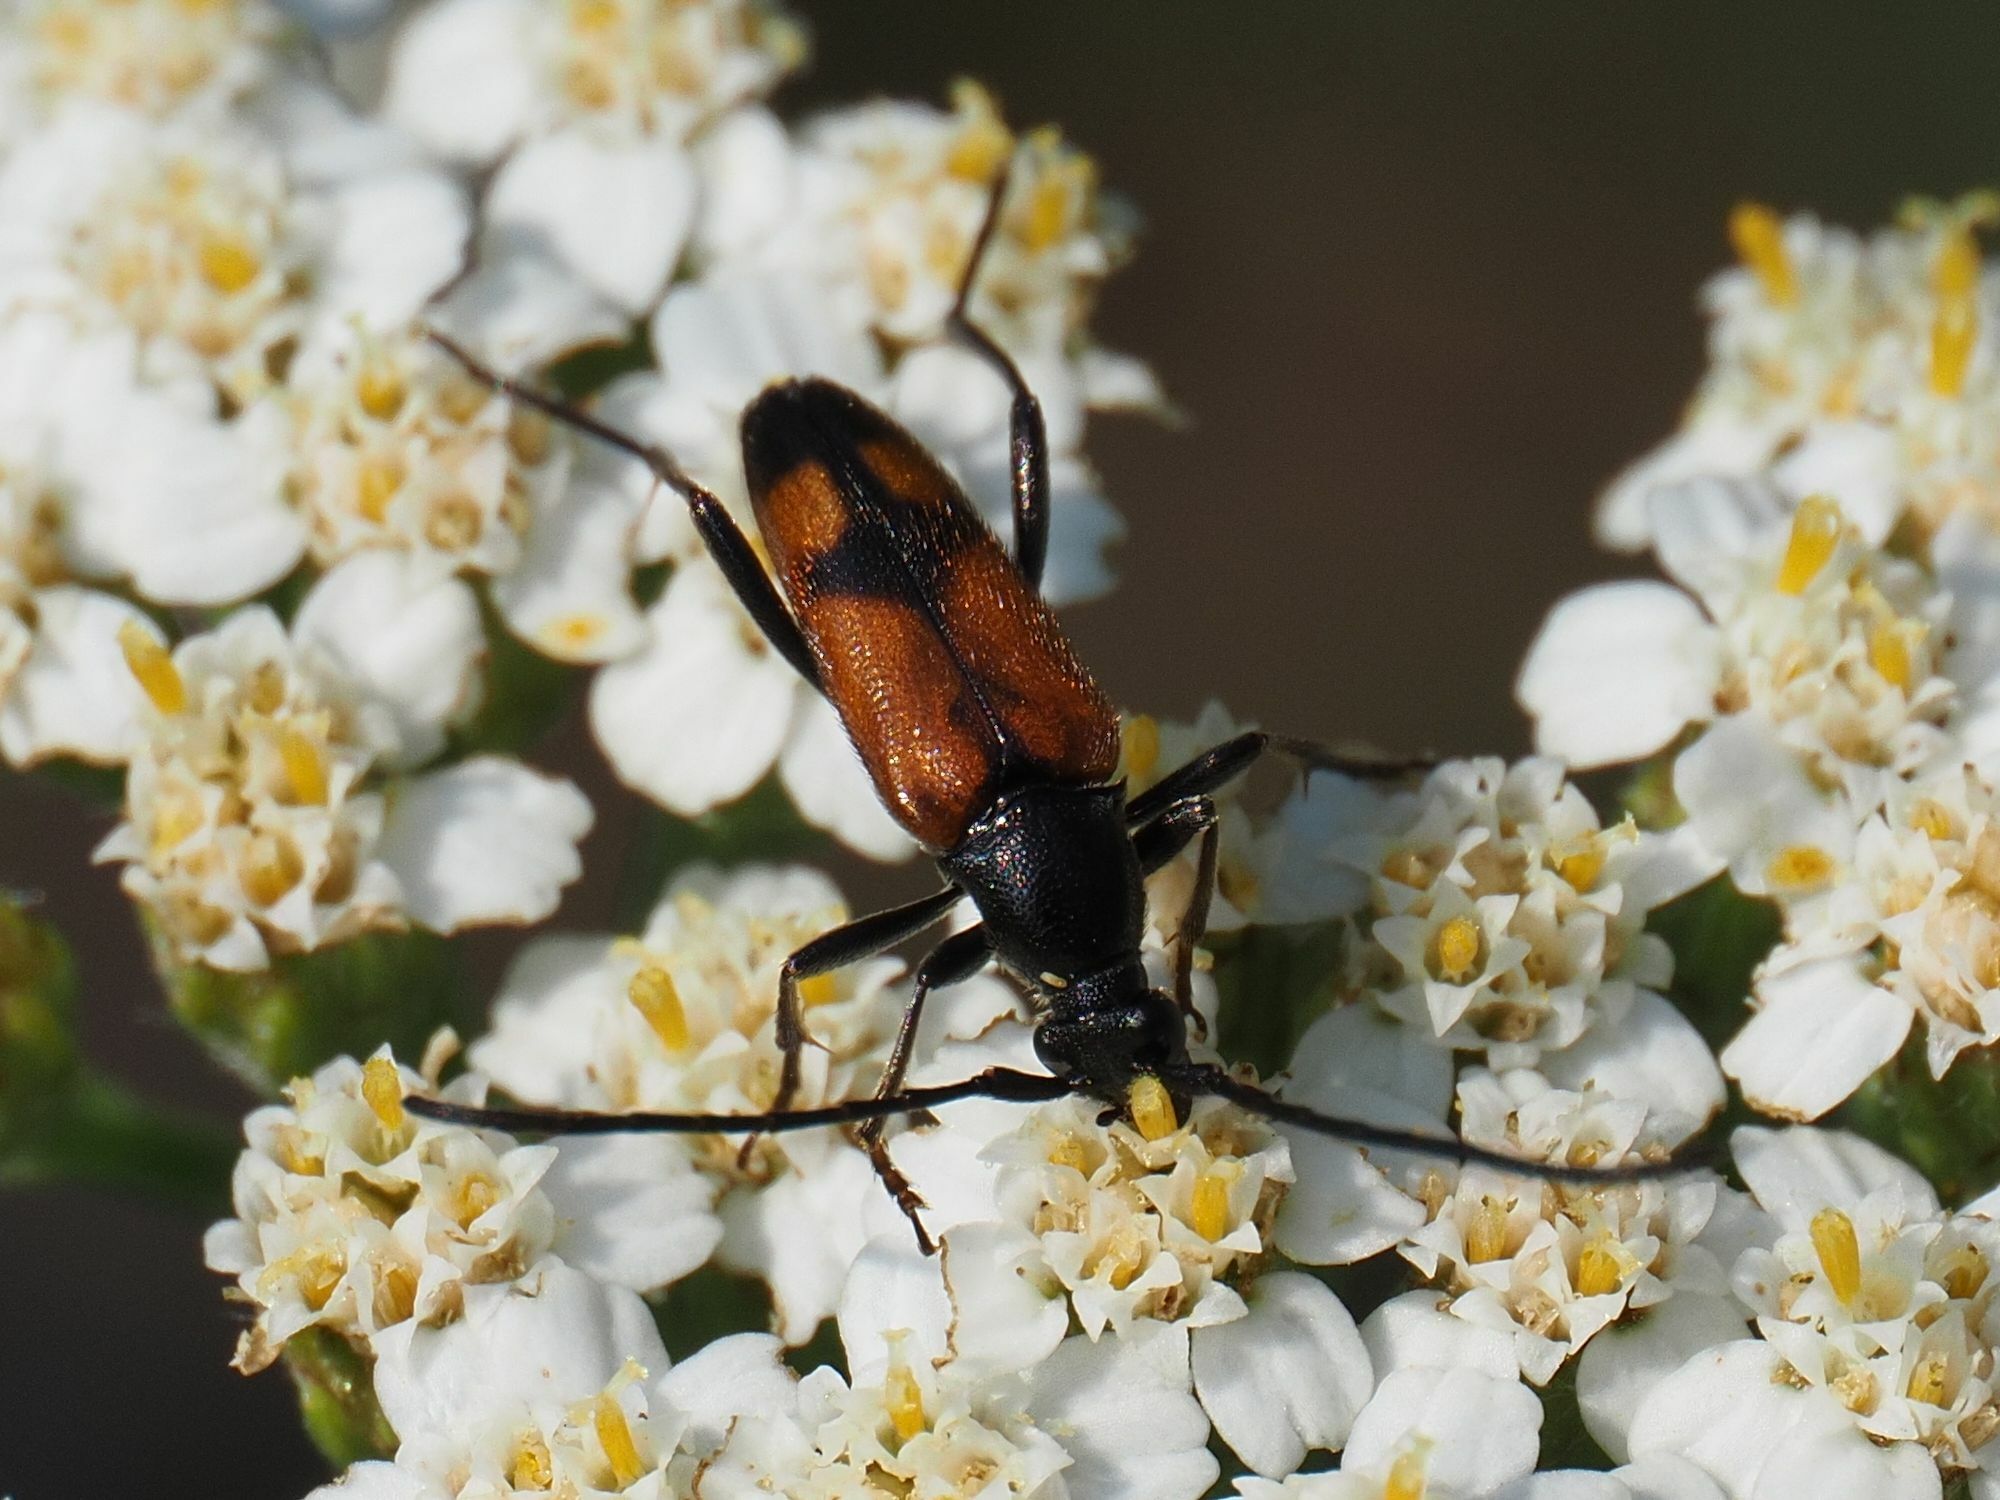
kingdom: Animalia
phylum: Arthropoda
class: Insecta
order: Coleoptera
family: Cerambycidae
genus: Stenurella
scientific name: Stenurella bifasciata
